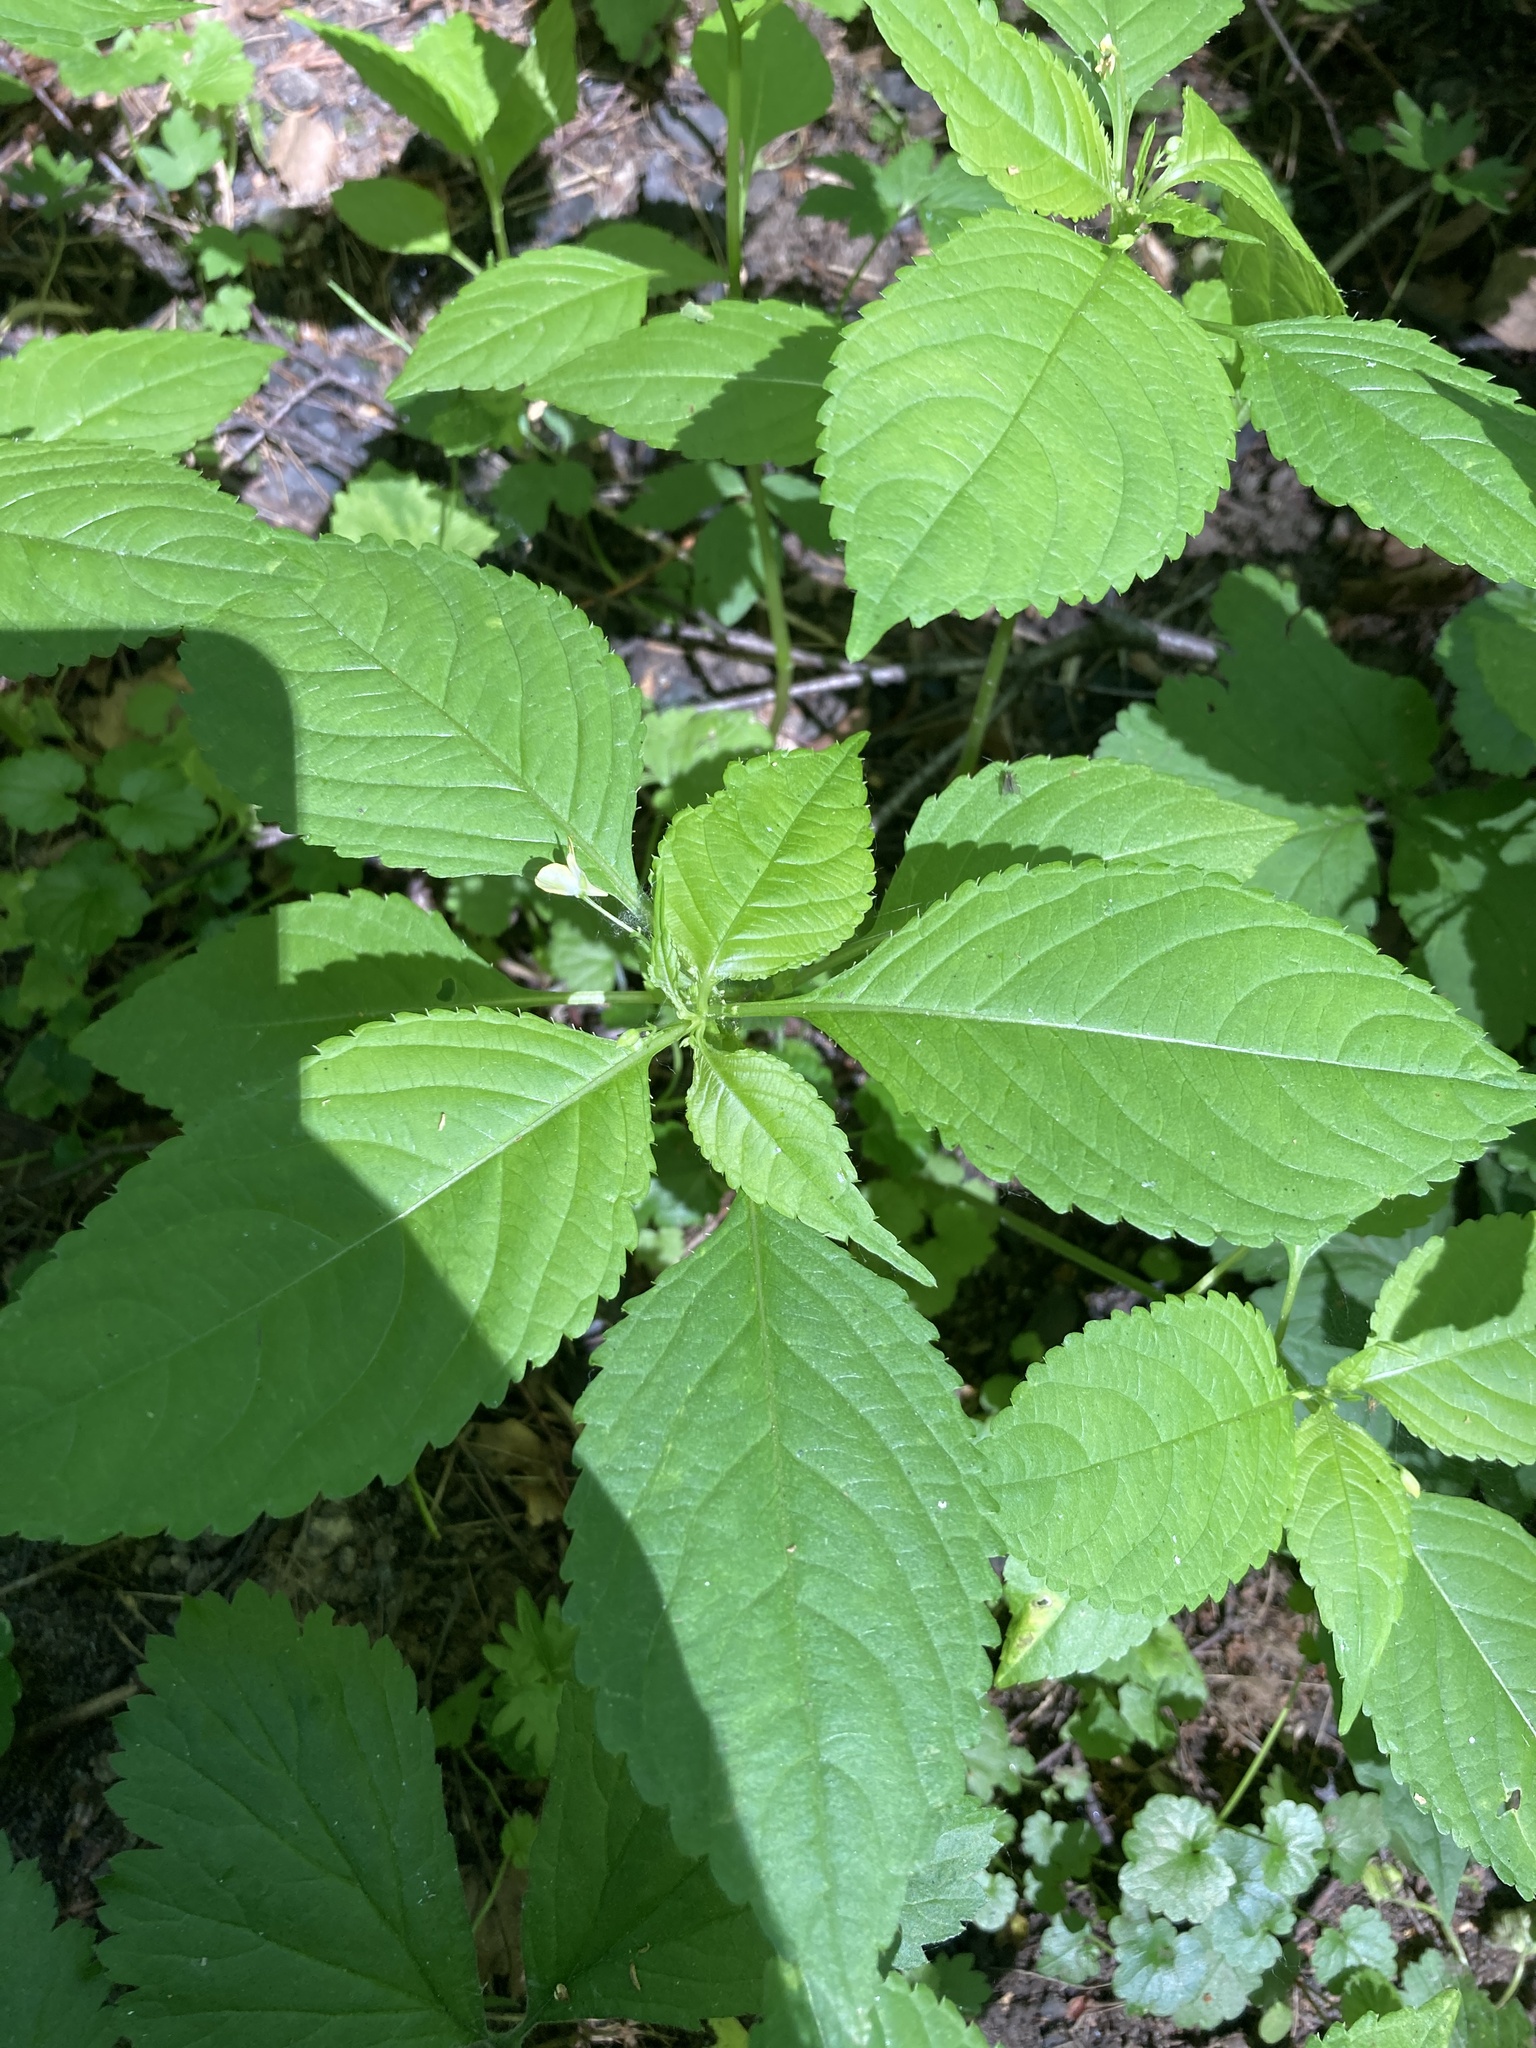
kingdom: Plantae
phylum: Tracheophyta
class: Magnoliopsida
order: Ericales
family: Balsaminaceae
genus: Impatiens
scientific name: Impatiens parviflora
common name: Small balsam
